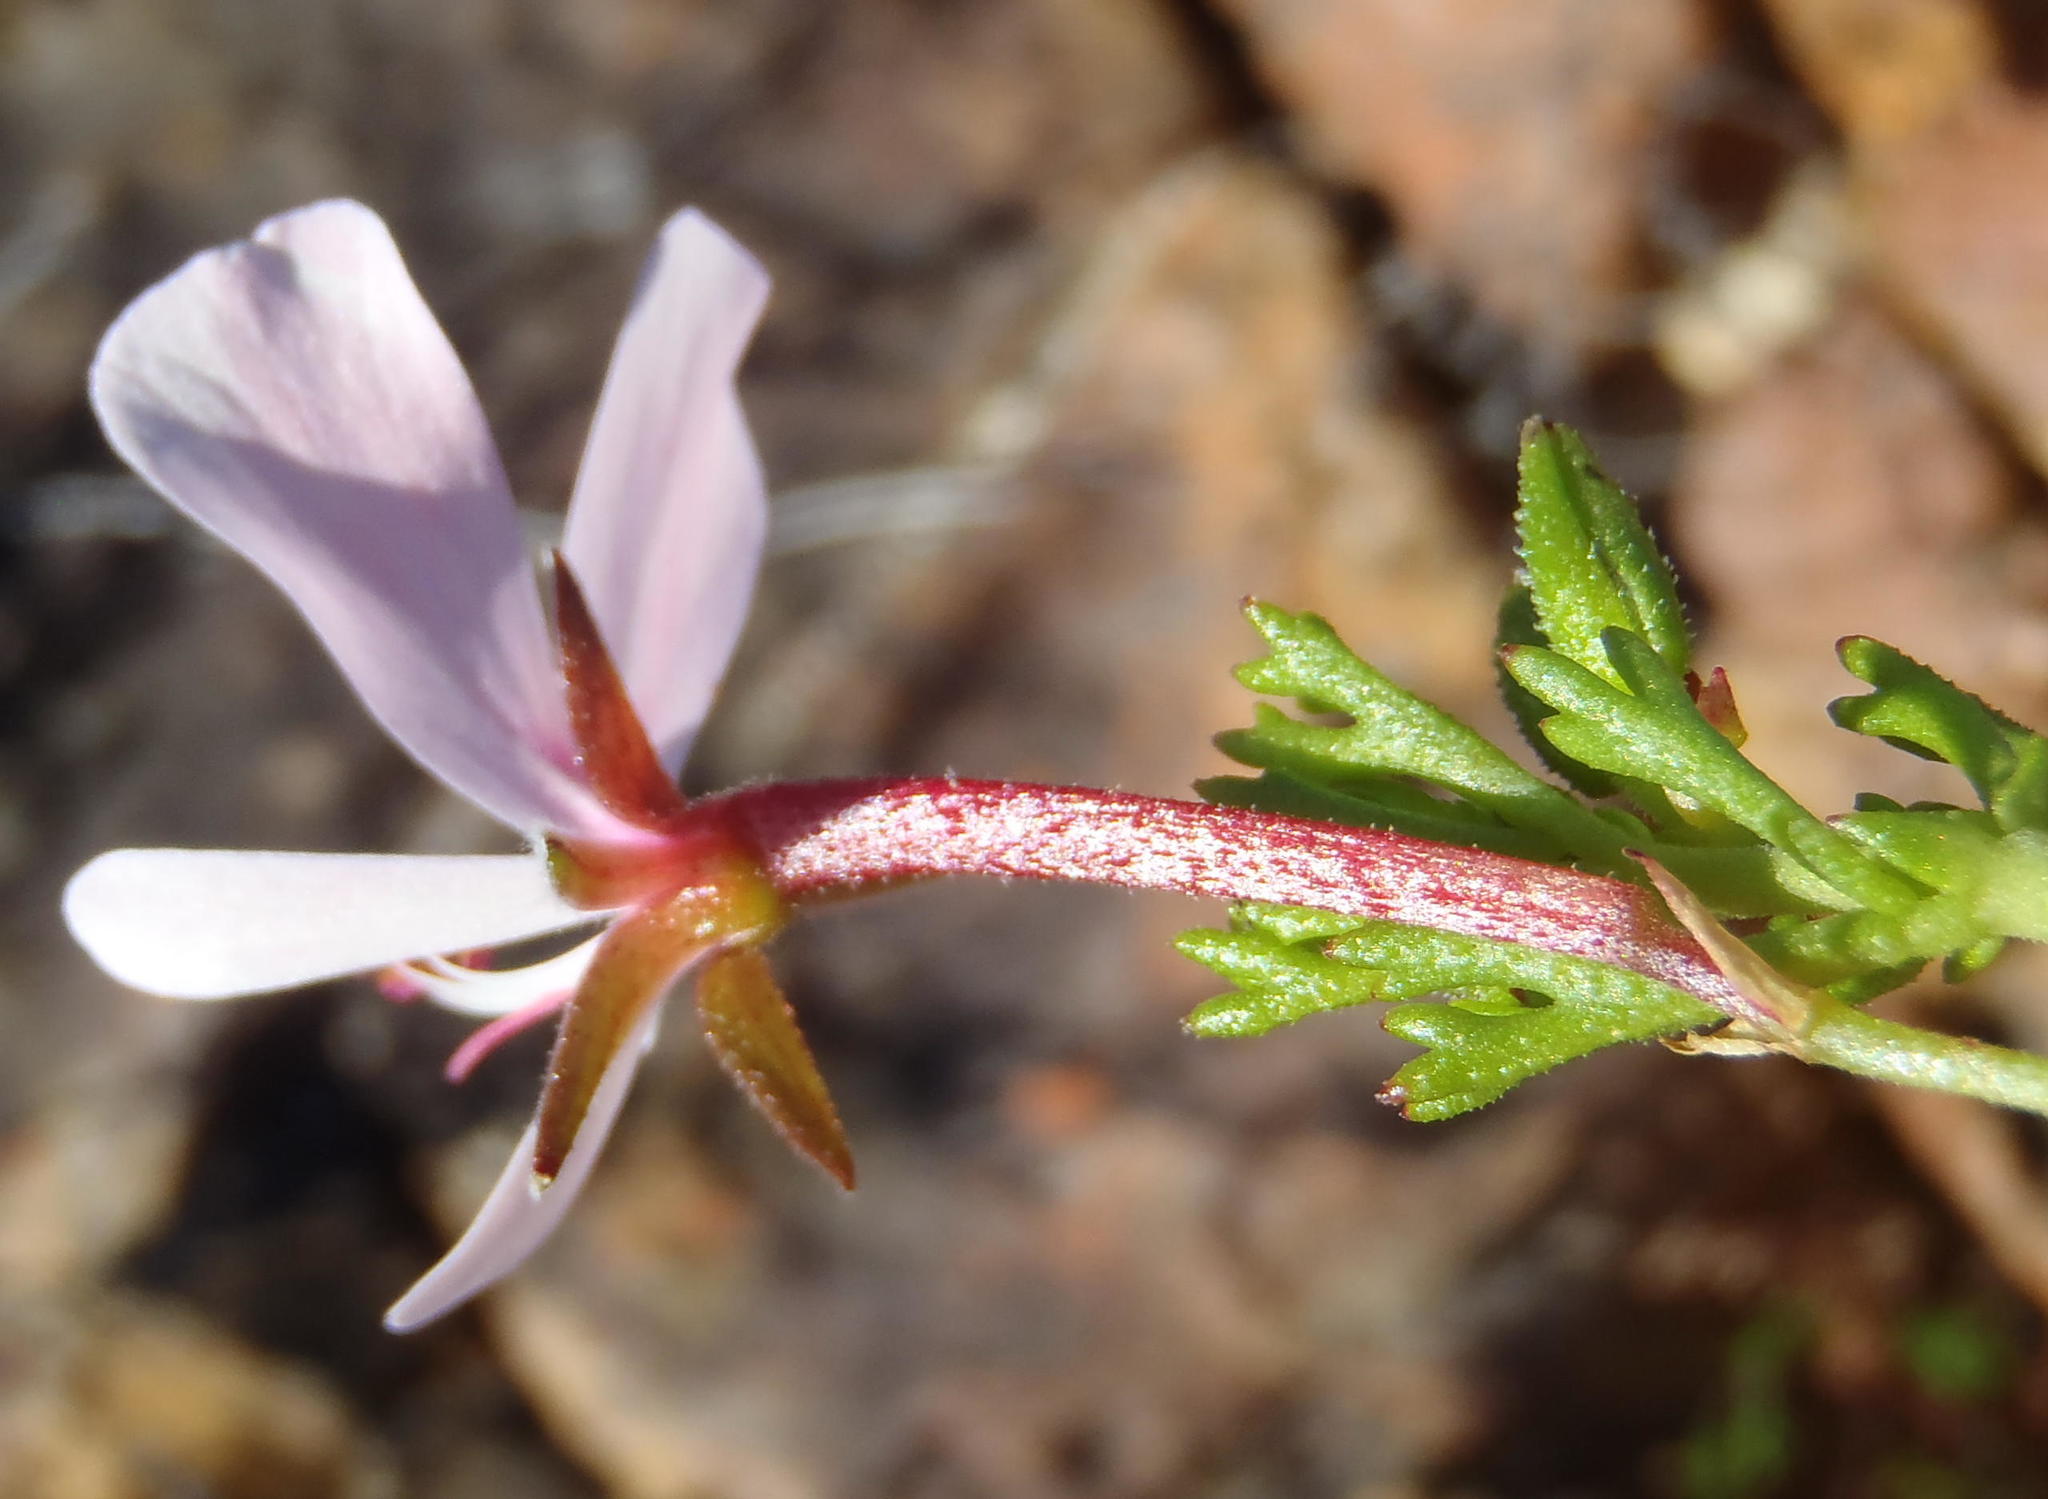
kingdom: Plantae
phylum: Tracheophyta
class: Magnoliopsida
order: Geraniales
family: Geraniaceae
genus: Pelargonium
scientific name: Pelargonium ternatum
